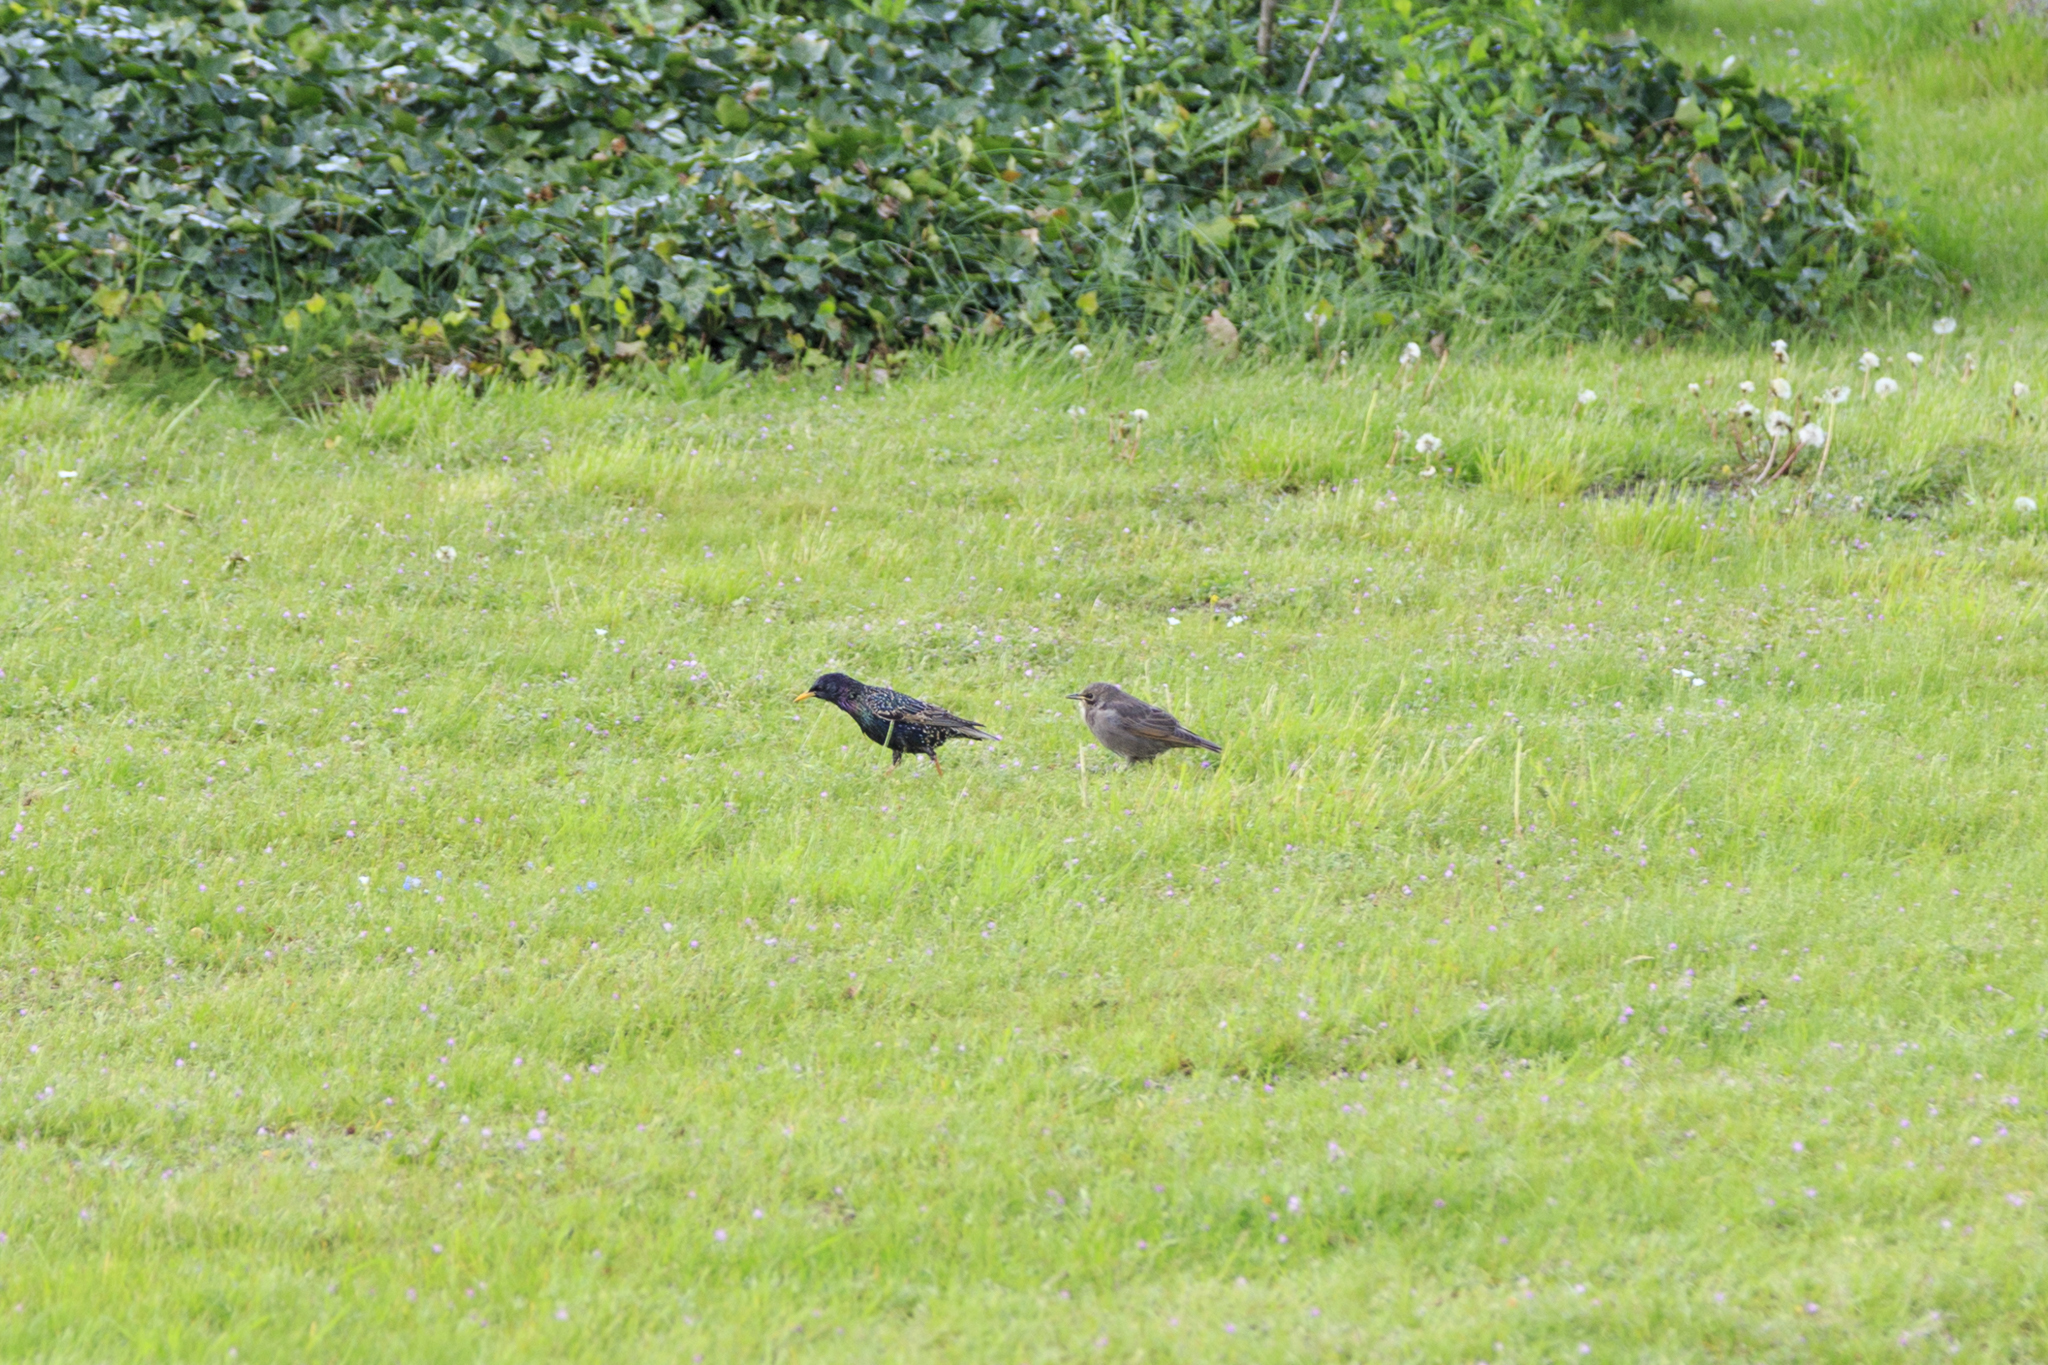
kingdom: Animalia
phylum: Chordata
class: Aves
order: Passeriformes
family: Sturnidae
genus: Sturnus
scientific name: Sturnus vulgaris
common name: Common starling
